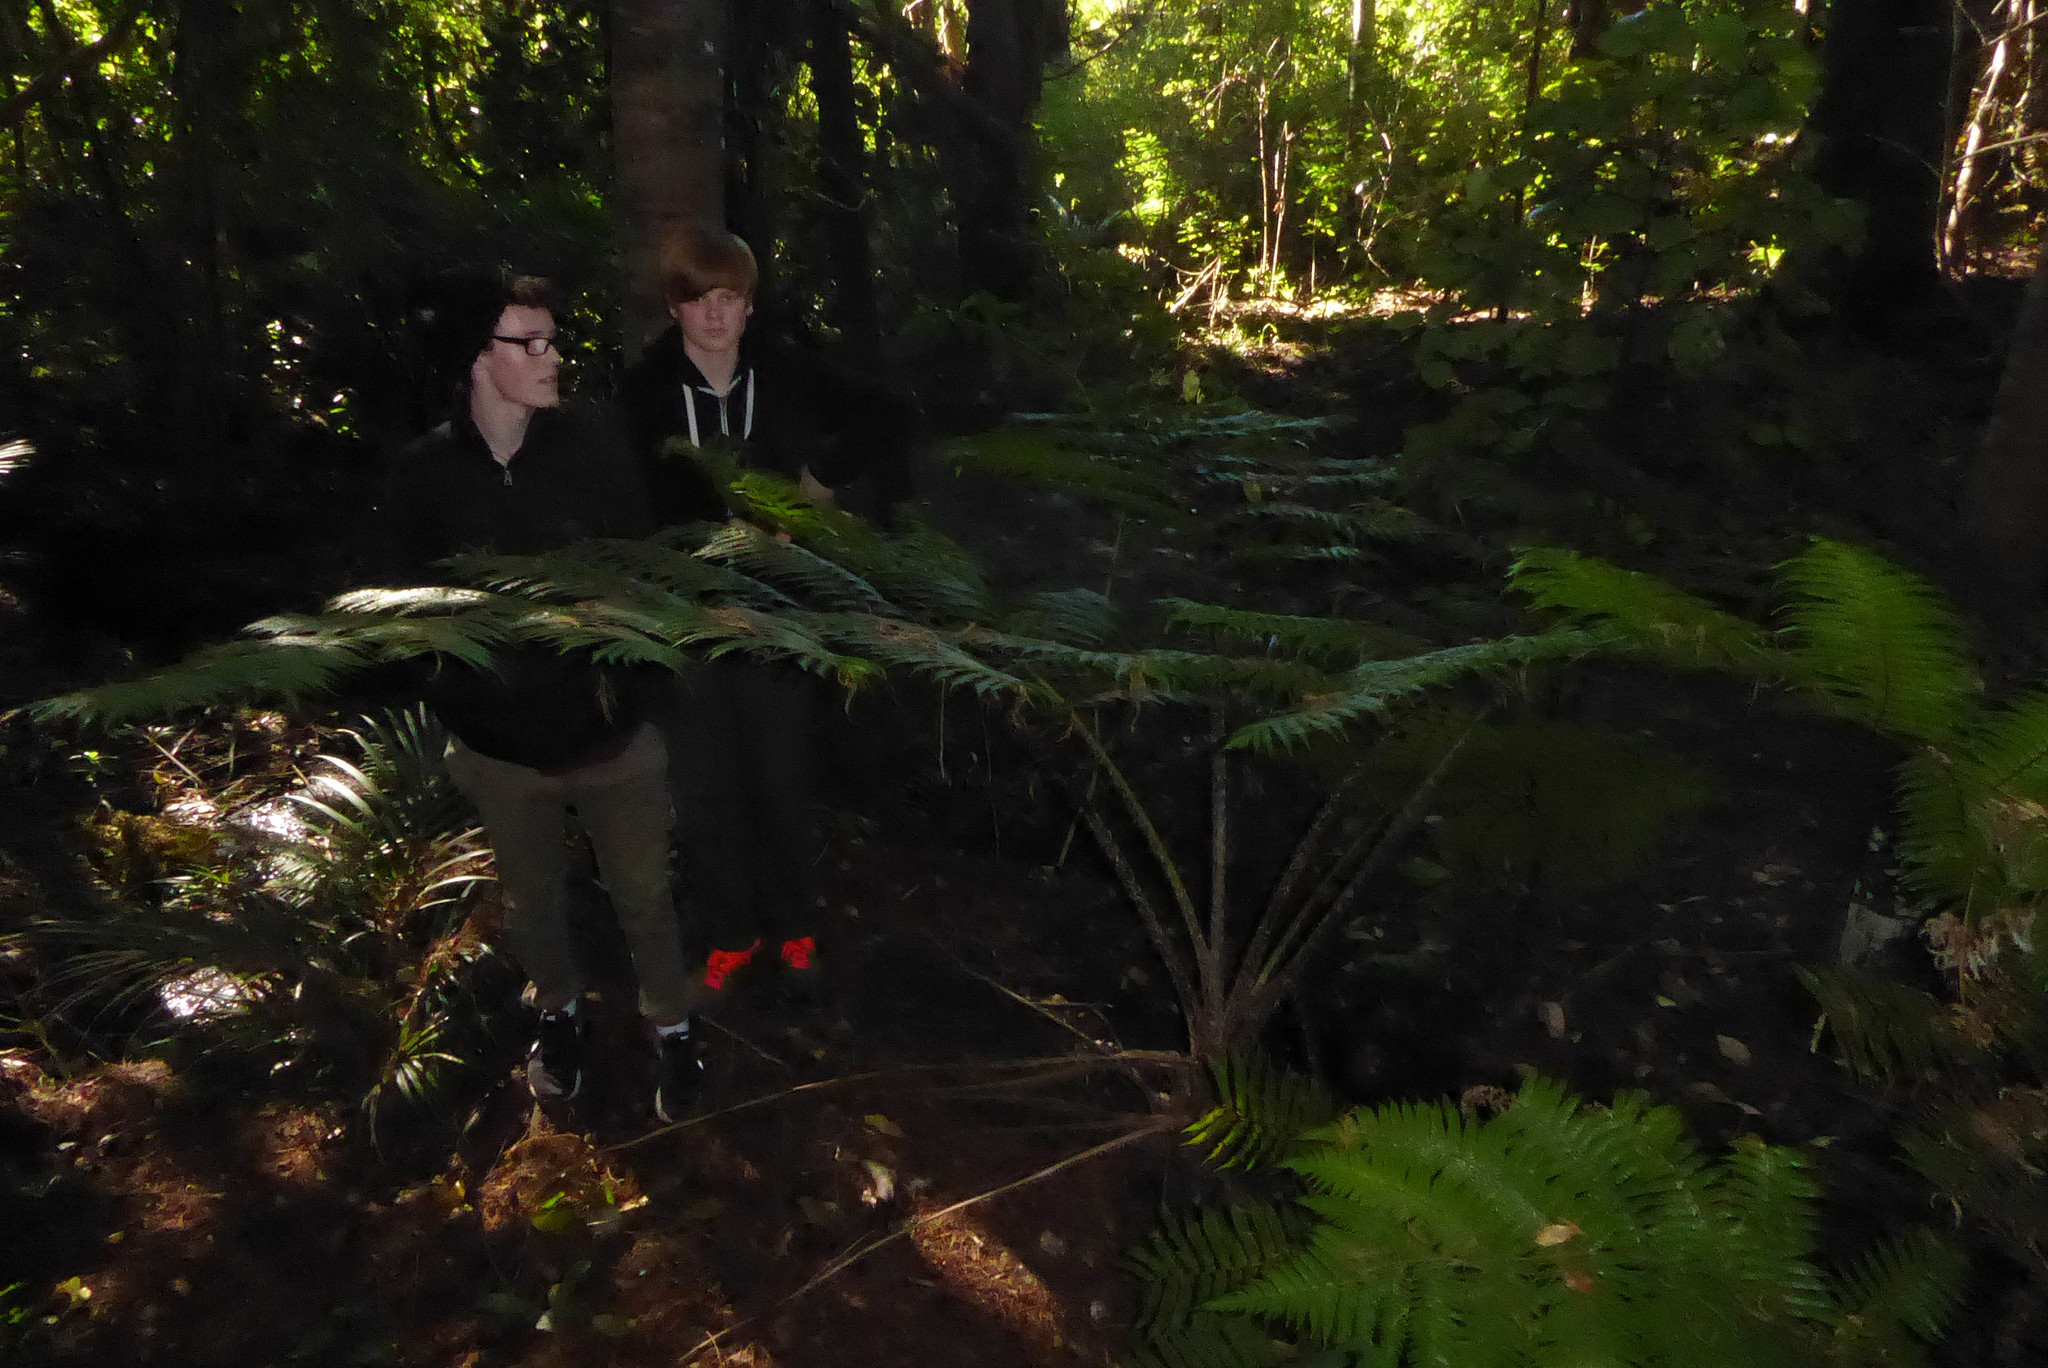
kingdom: Plantae
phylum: Tracheophyta
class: Polypodiopsida
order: Cyatheales
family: Cyatheaceae
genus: Sphaeropteris
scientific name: Sphaeropteris cooperi
